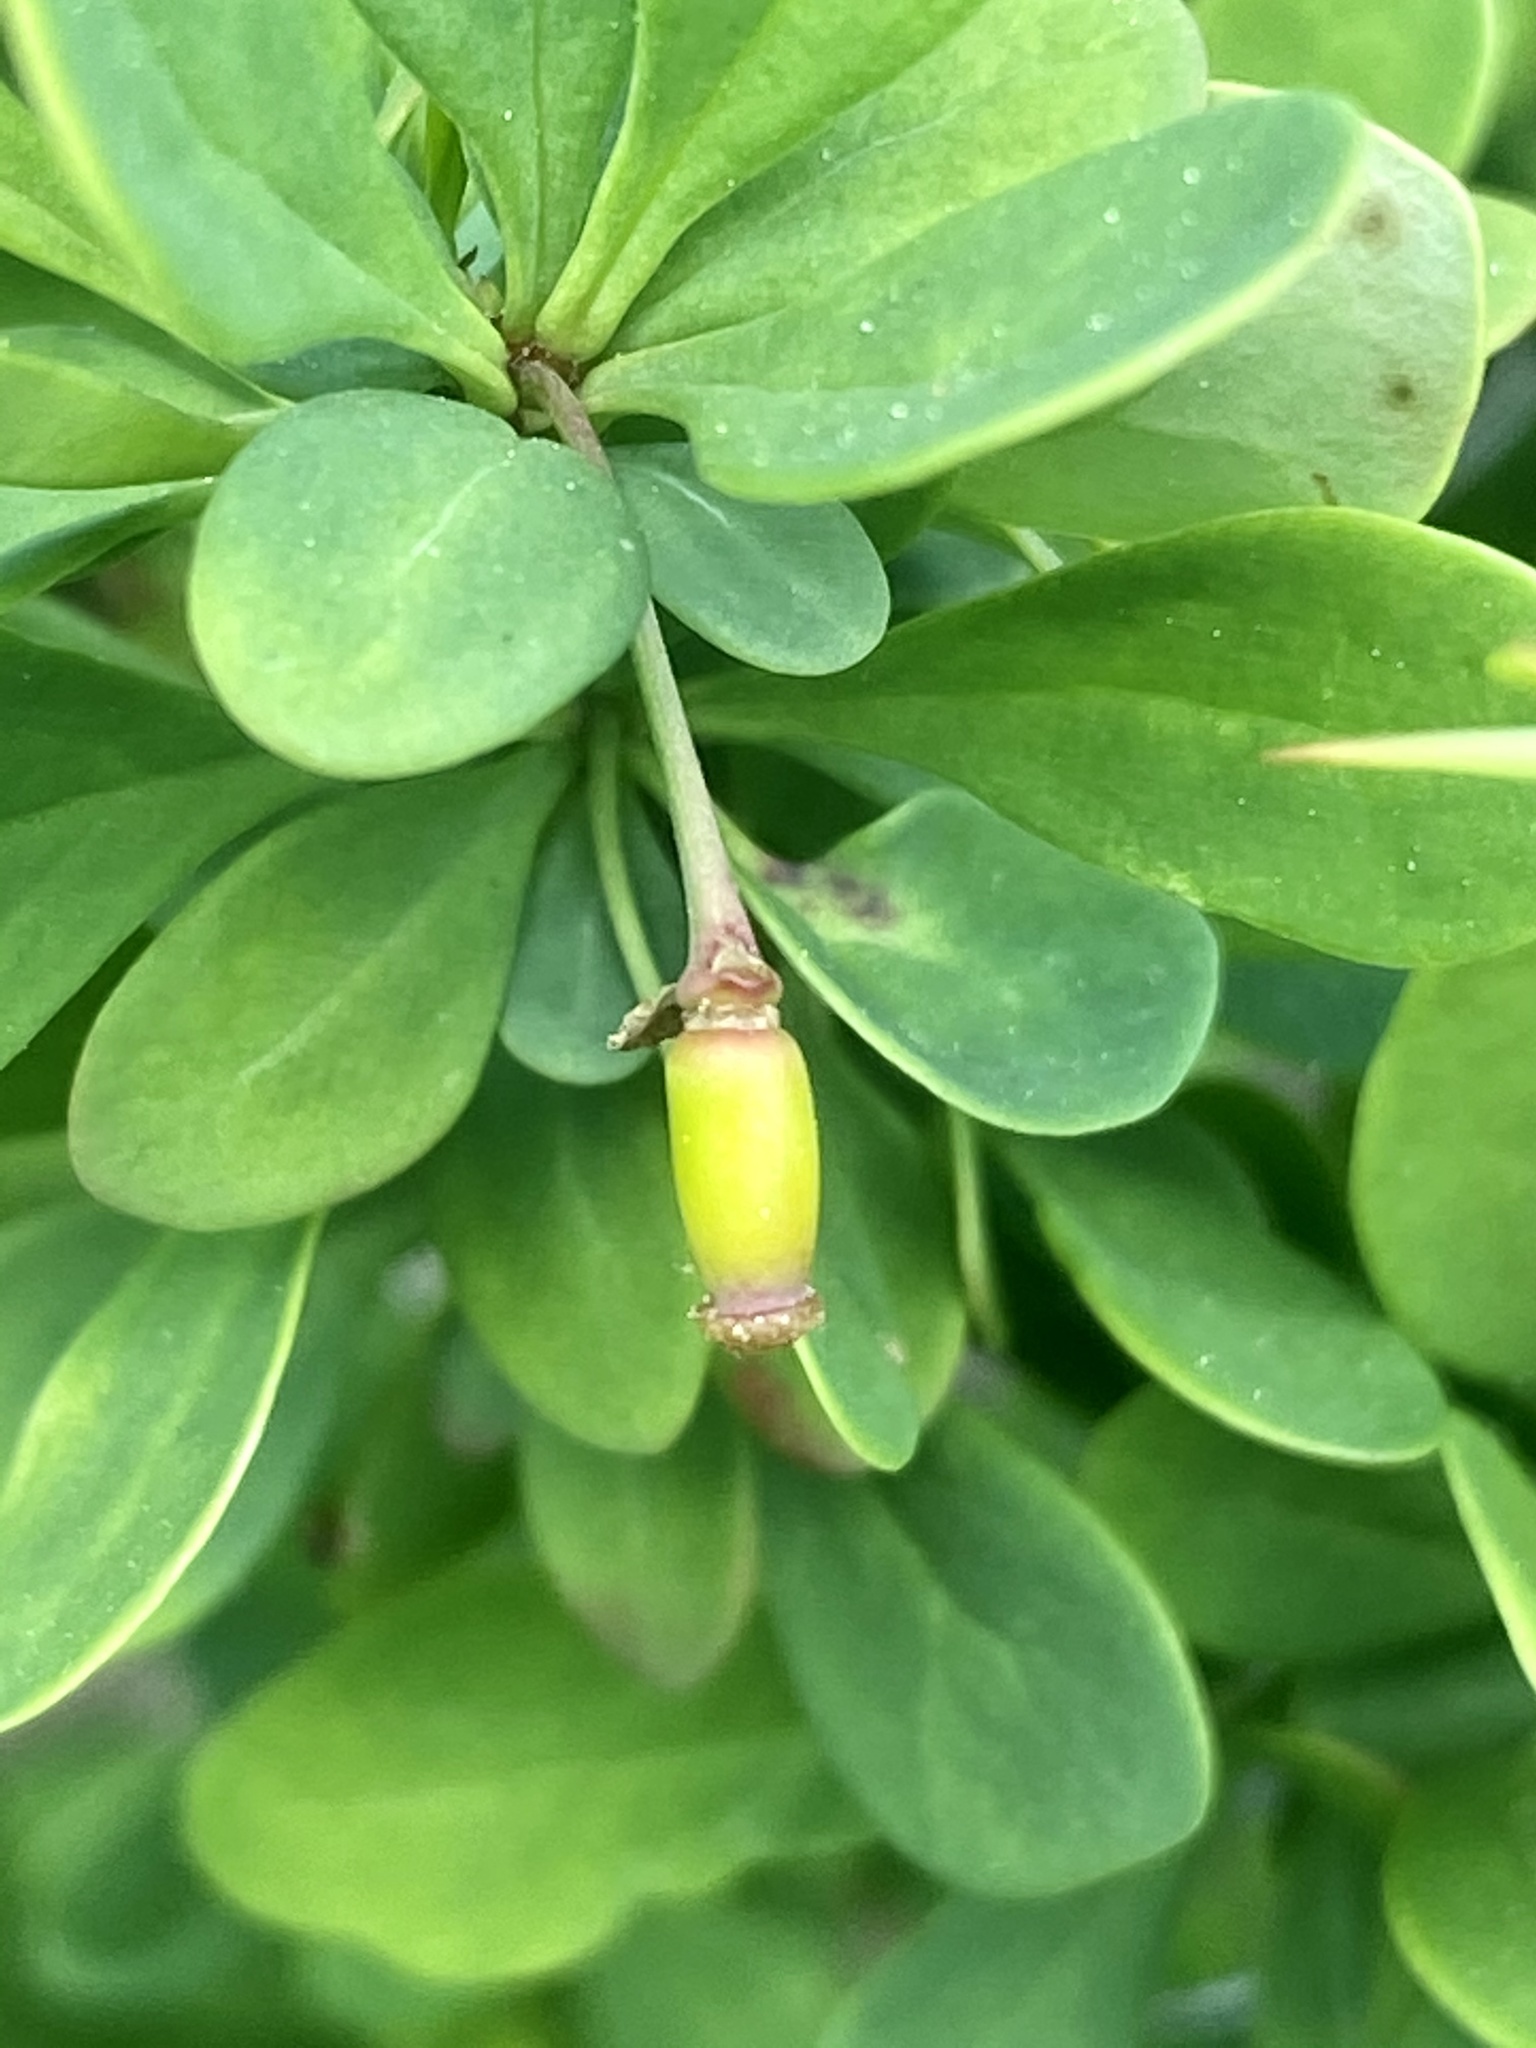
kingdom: Plantae
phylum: Tracheophyta
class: Magnoliopsida
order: Ranunculales
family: Berberidaceae
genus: Berberis
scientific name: Berberis thunbergii
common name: Japanese barberry
